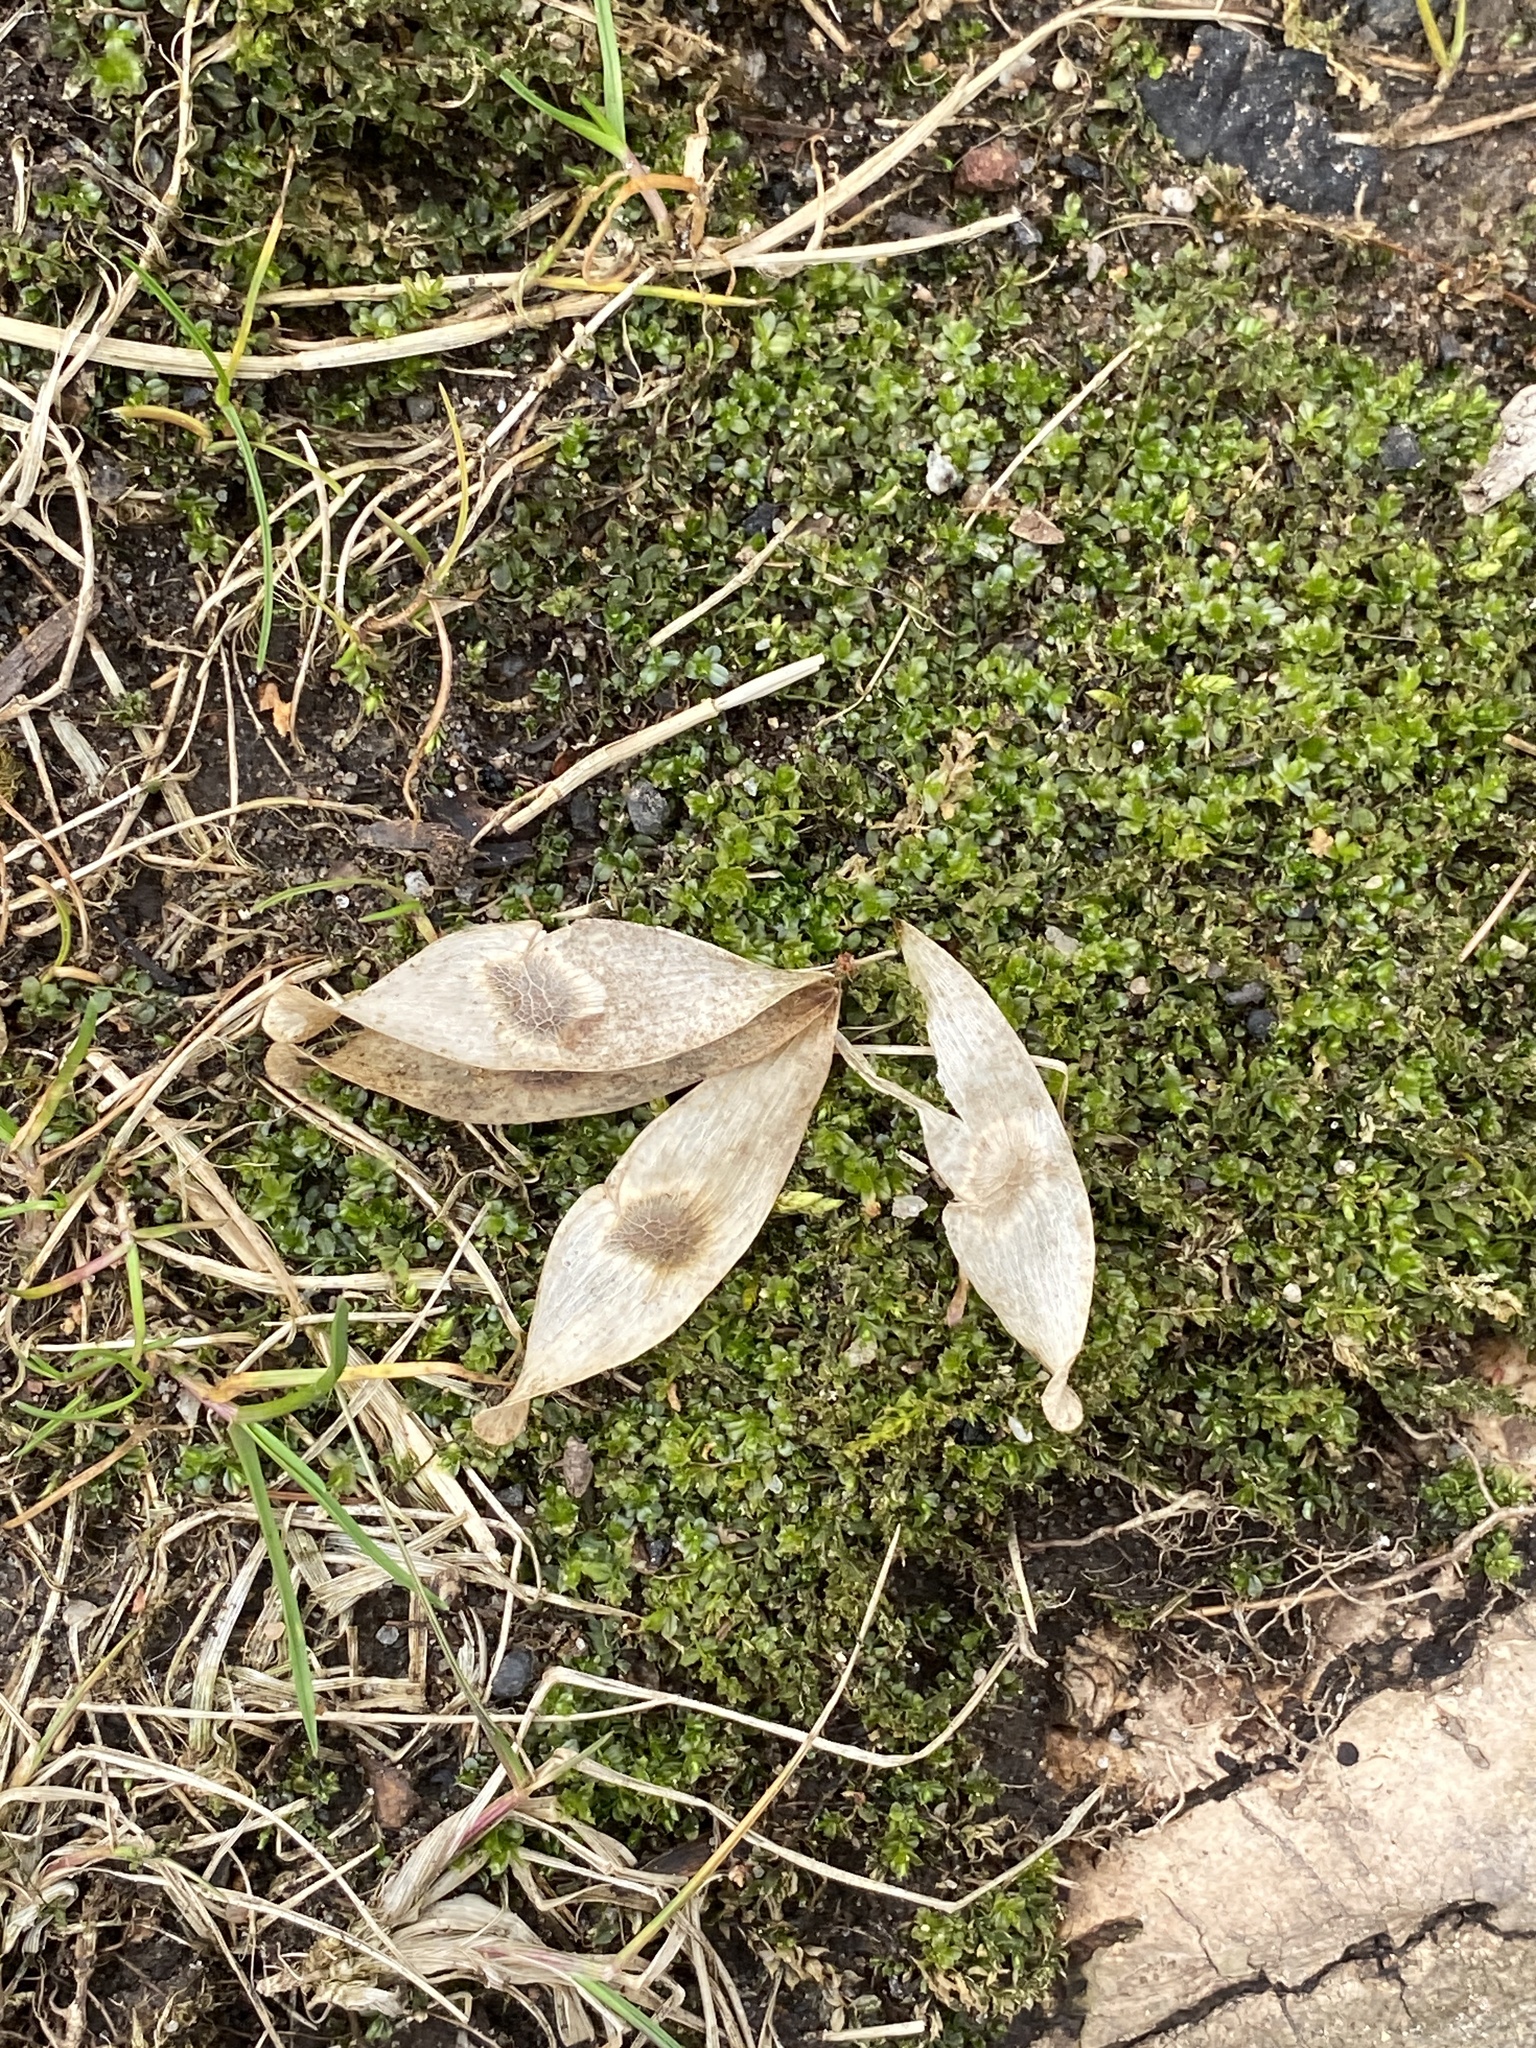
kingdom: Plantae
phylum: Tracheophyta
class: Magnoliopsida
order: Sapindales
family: Simaroubaceae
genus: Ailanthus
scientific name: Ailanthus altissima
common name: Tree-of-heaven
